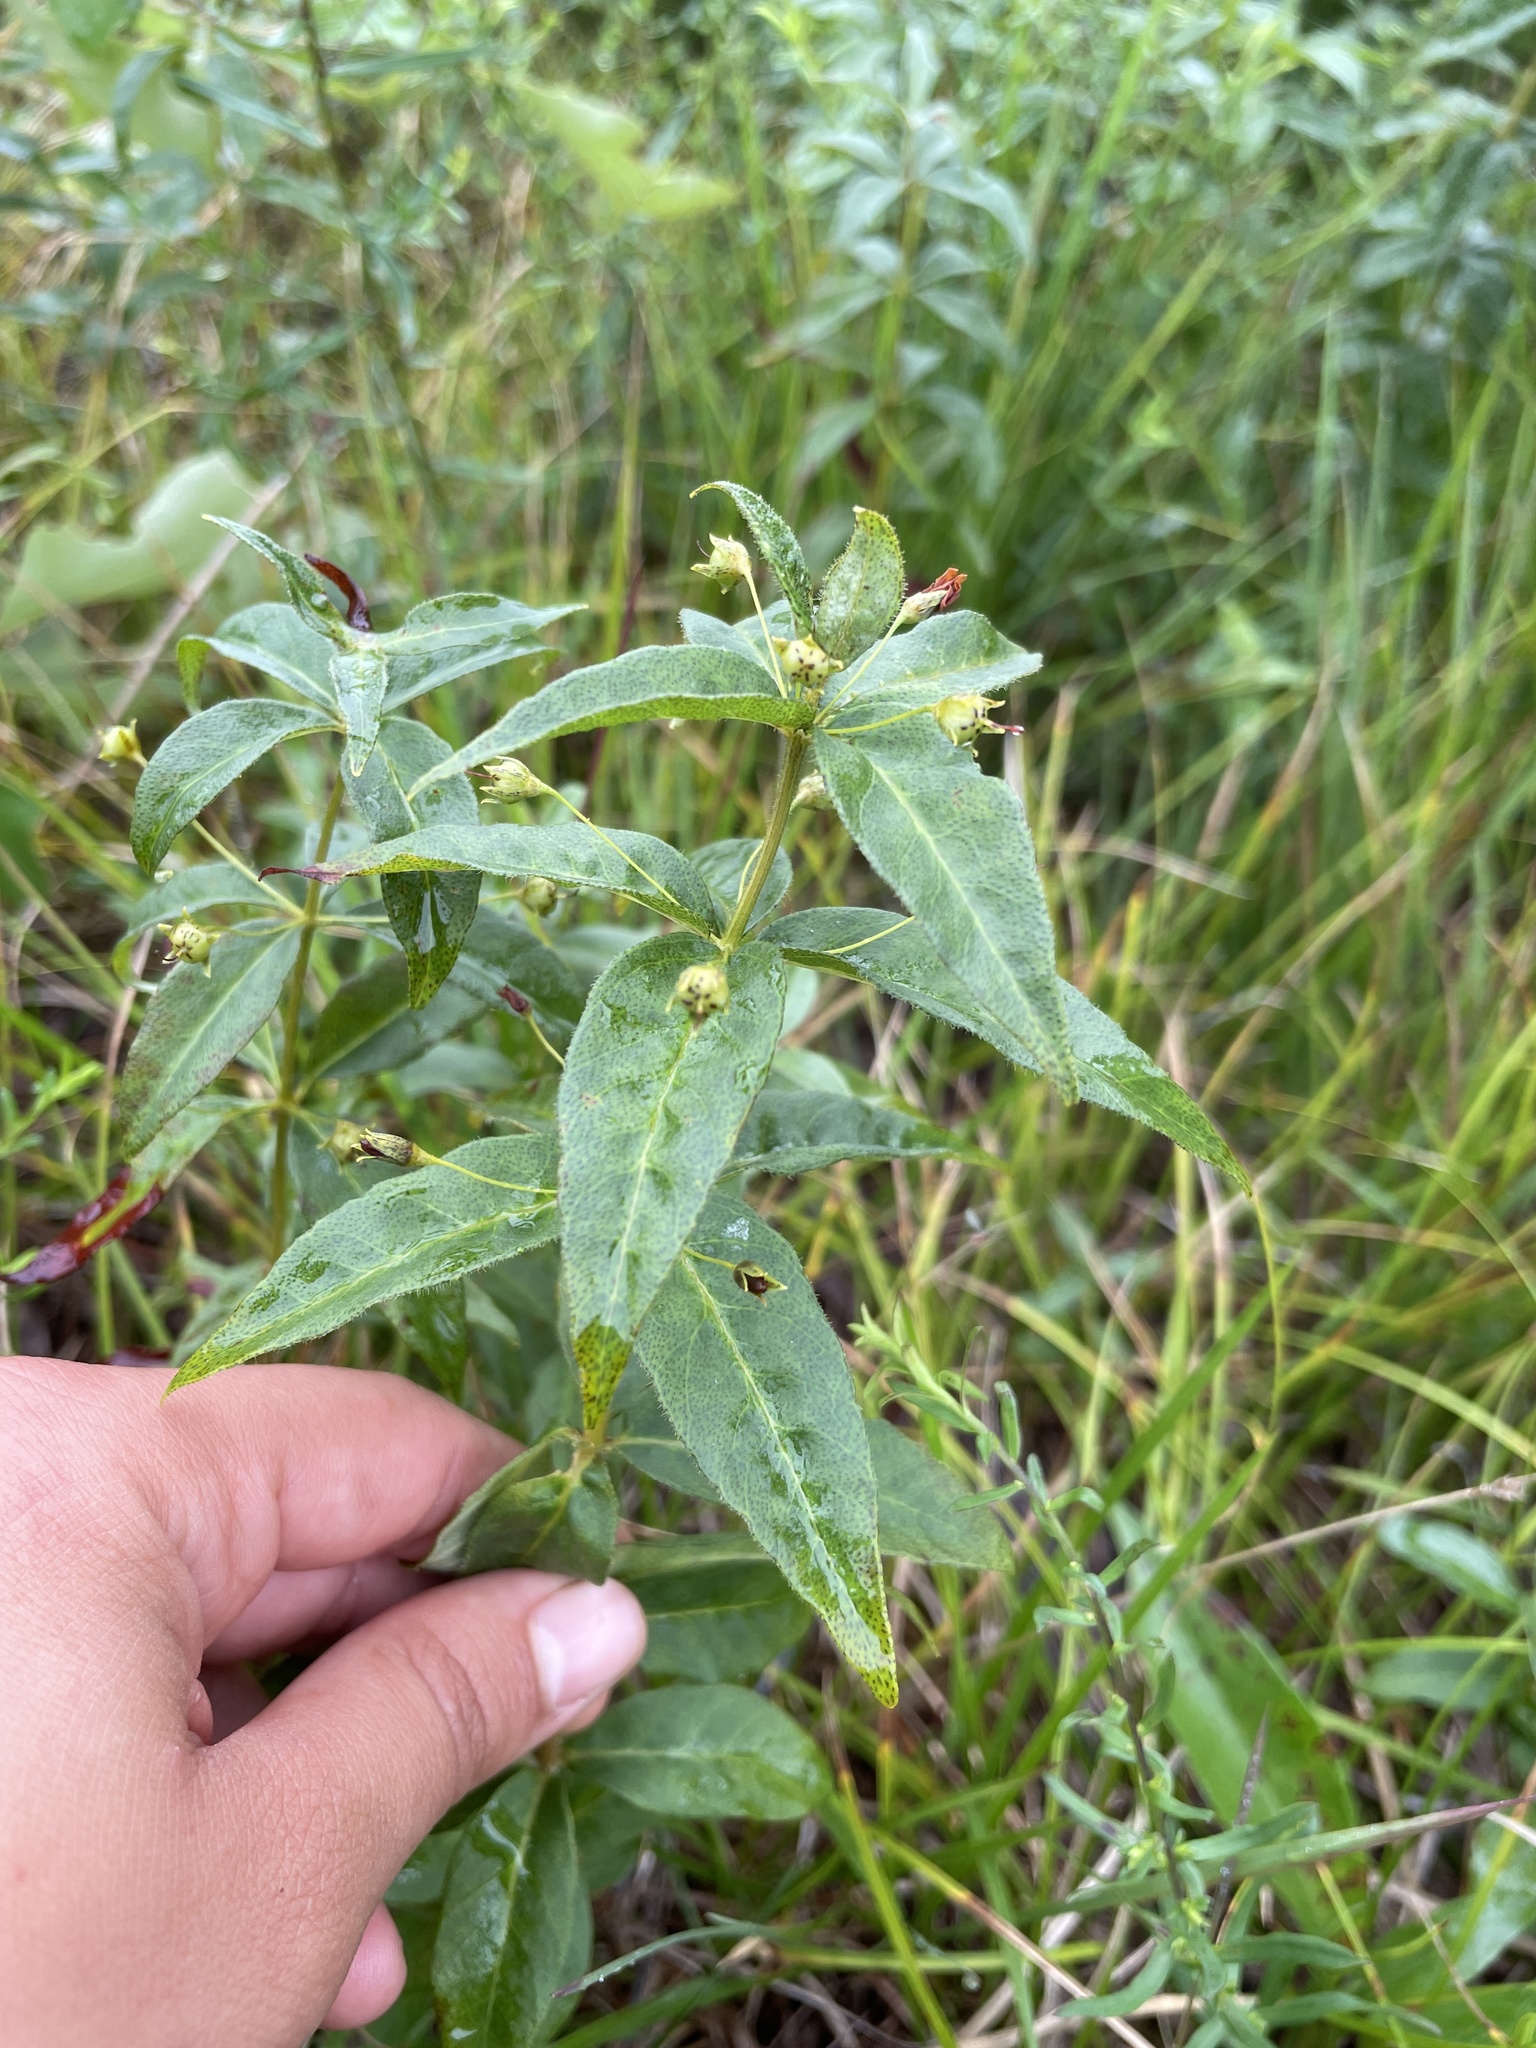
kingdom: Plantae
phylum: Tracheophyta
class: Magnoliopsida
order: Ericales
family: Primulaceae
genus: Lysimachia
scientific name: Lysimachia quadrifolia
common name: Whorled loosestrife
